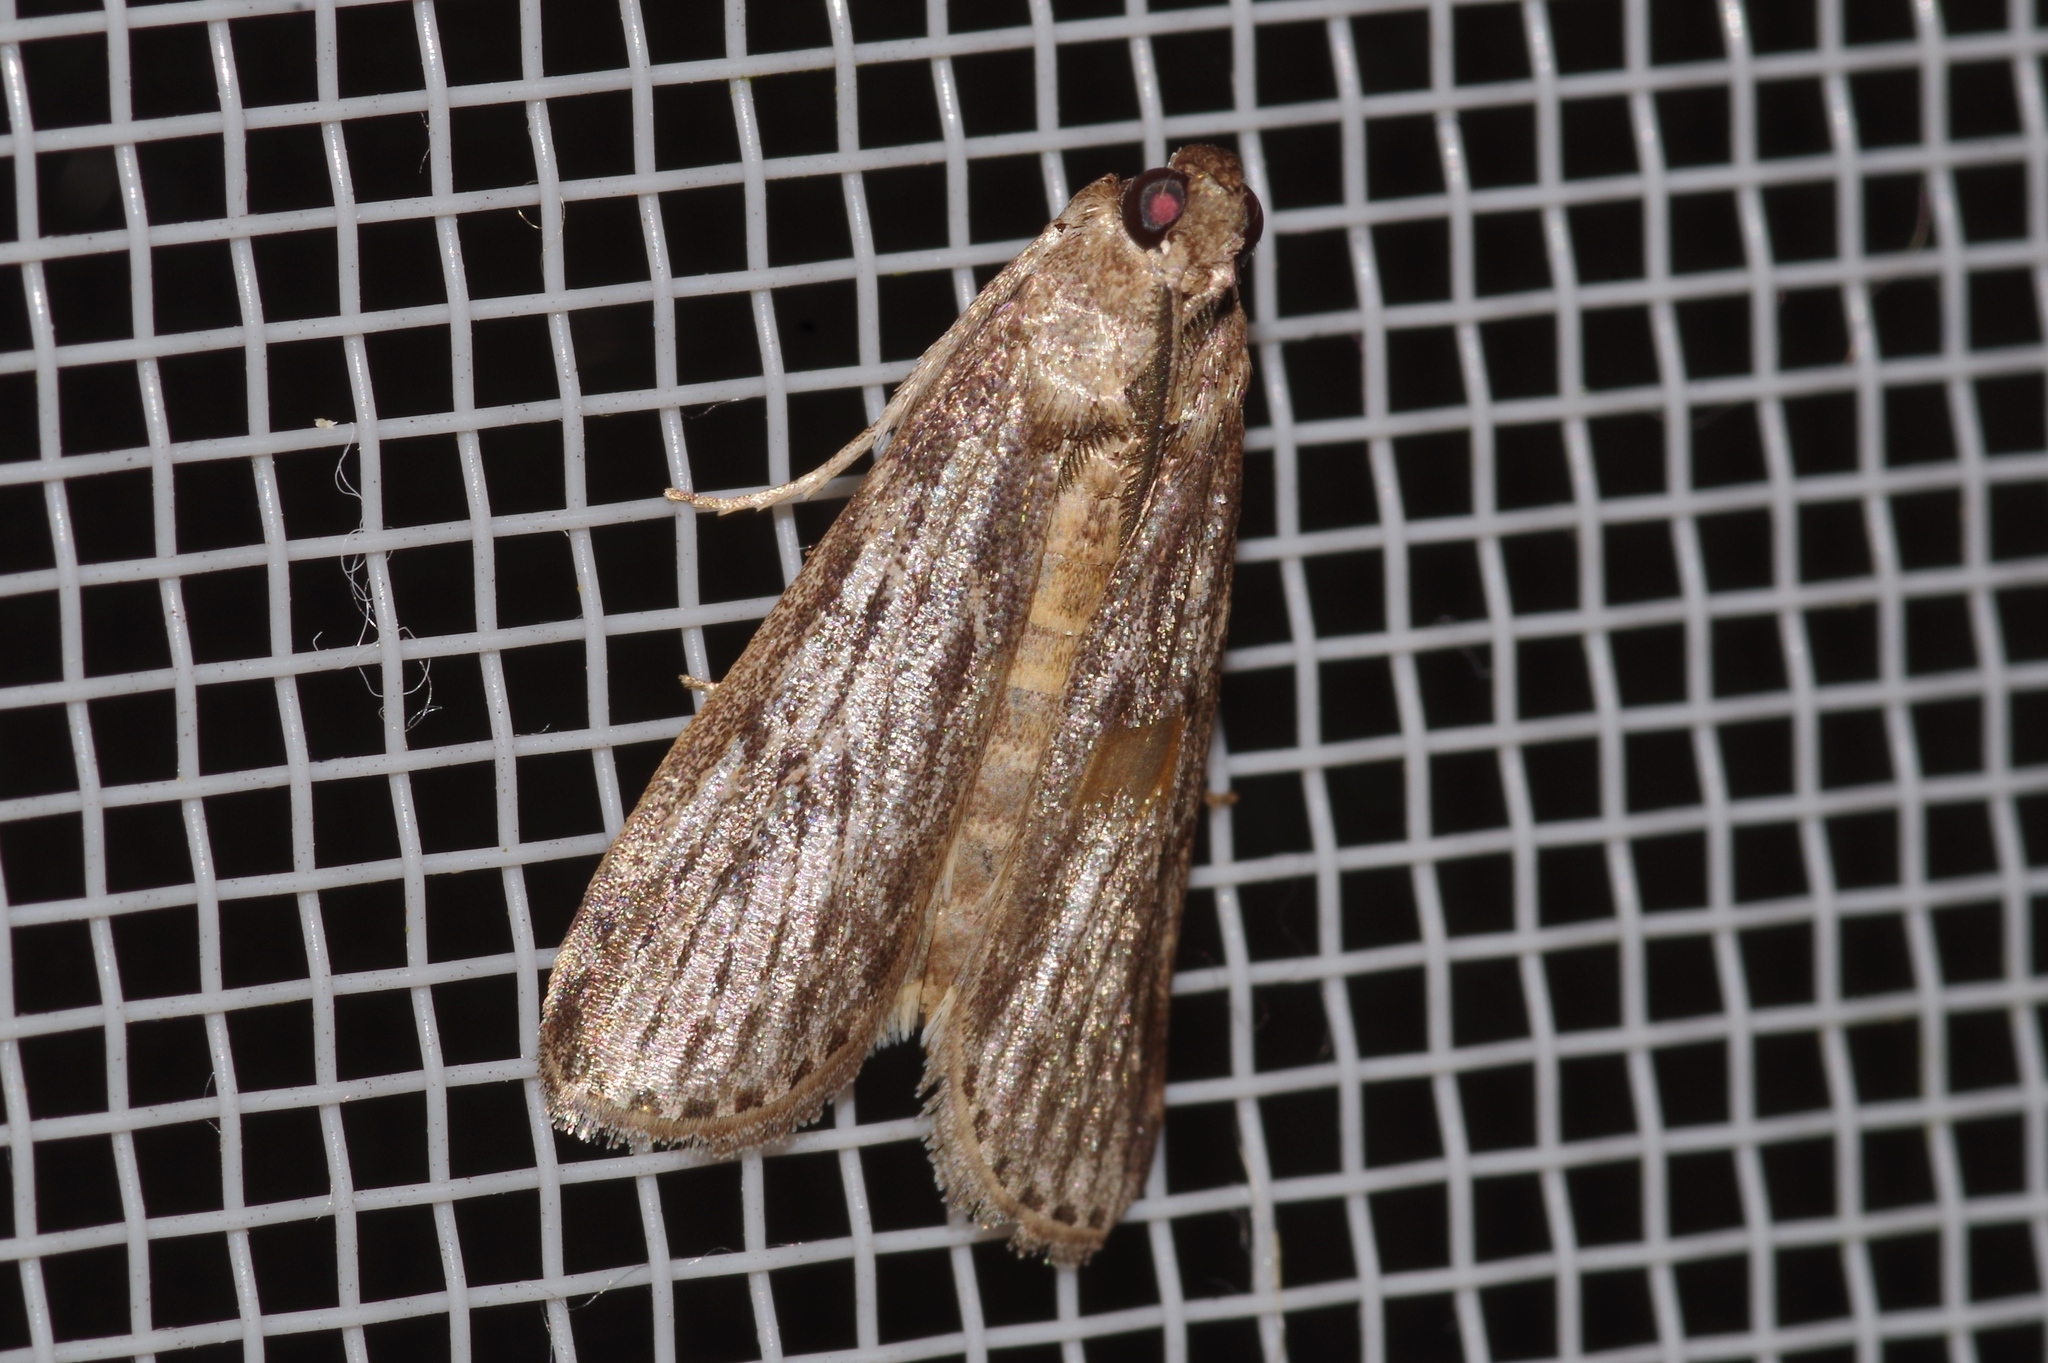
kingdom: Animalia
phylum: Arthropoda
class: Insecta
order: Lepidoptera
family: Pyralidae
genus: Mussidia
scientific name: Mussidia pectinicornella
